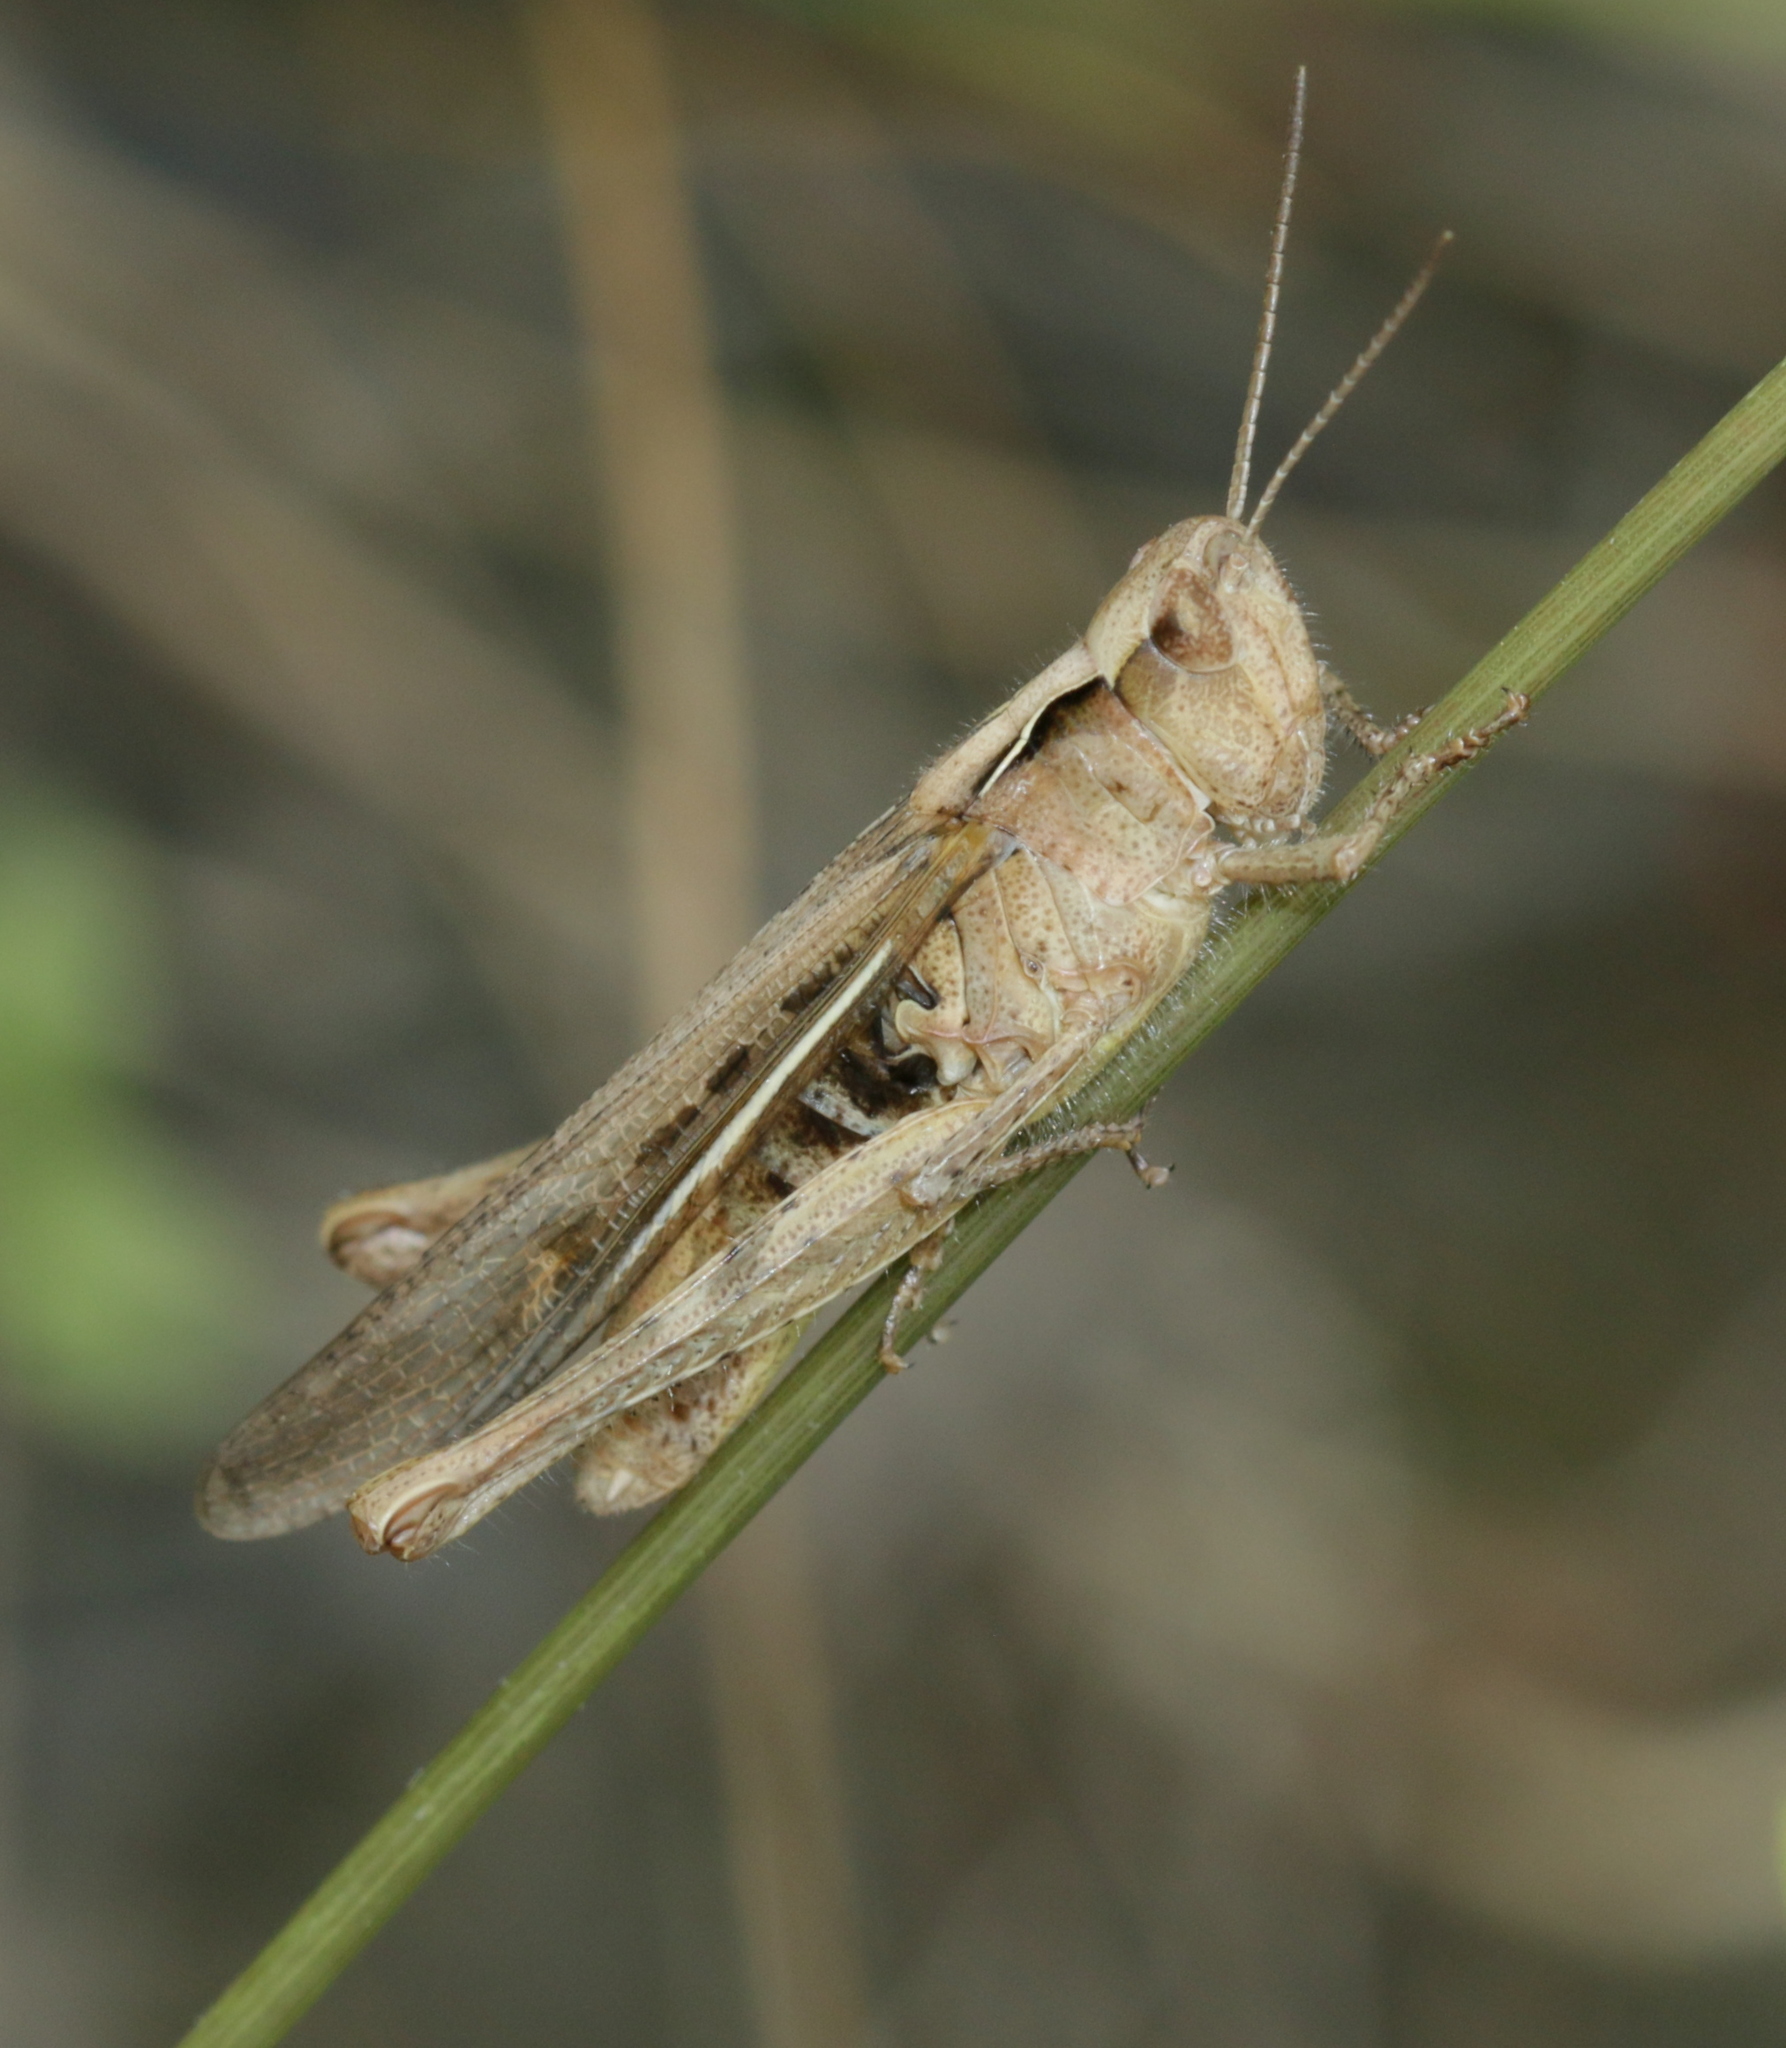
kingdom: Animalia
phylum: Arthropoda
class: Insecta
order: Orthoptera
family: Acrididae
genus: Chorthippus
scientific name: Chorthippus brunneus
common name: Field grasshopper
